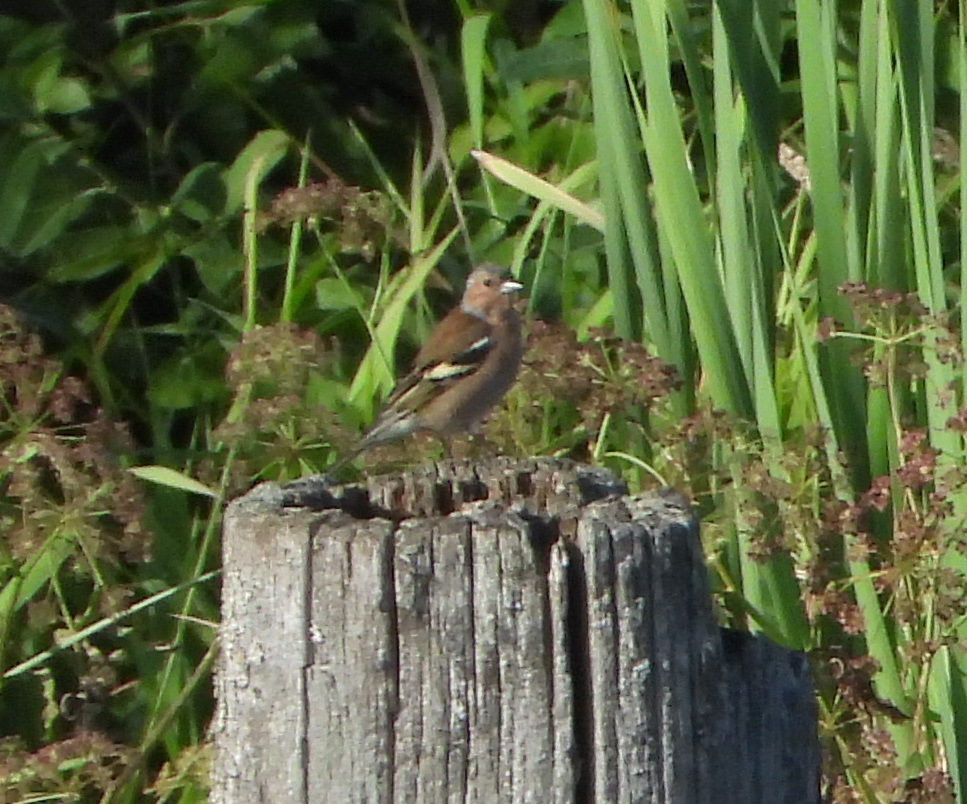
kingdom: Animalia
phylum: Chordata
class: Aves
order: Passeriformes
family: Fringillidae
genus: Fringilla
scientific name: Fringilla coelebs
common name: Common chaffinch
